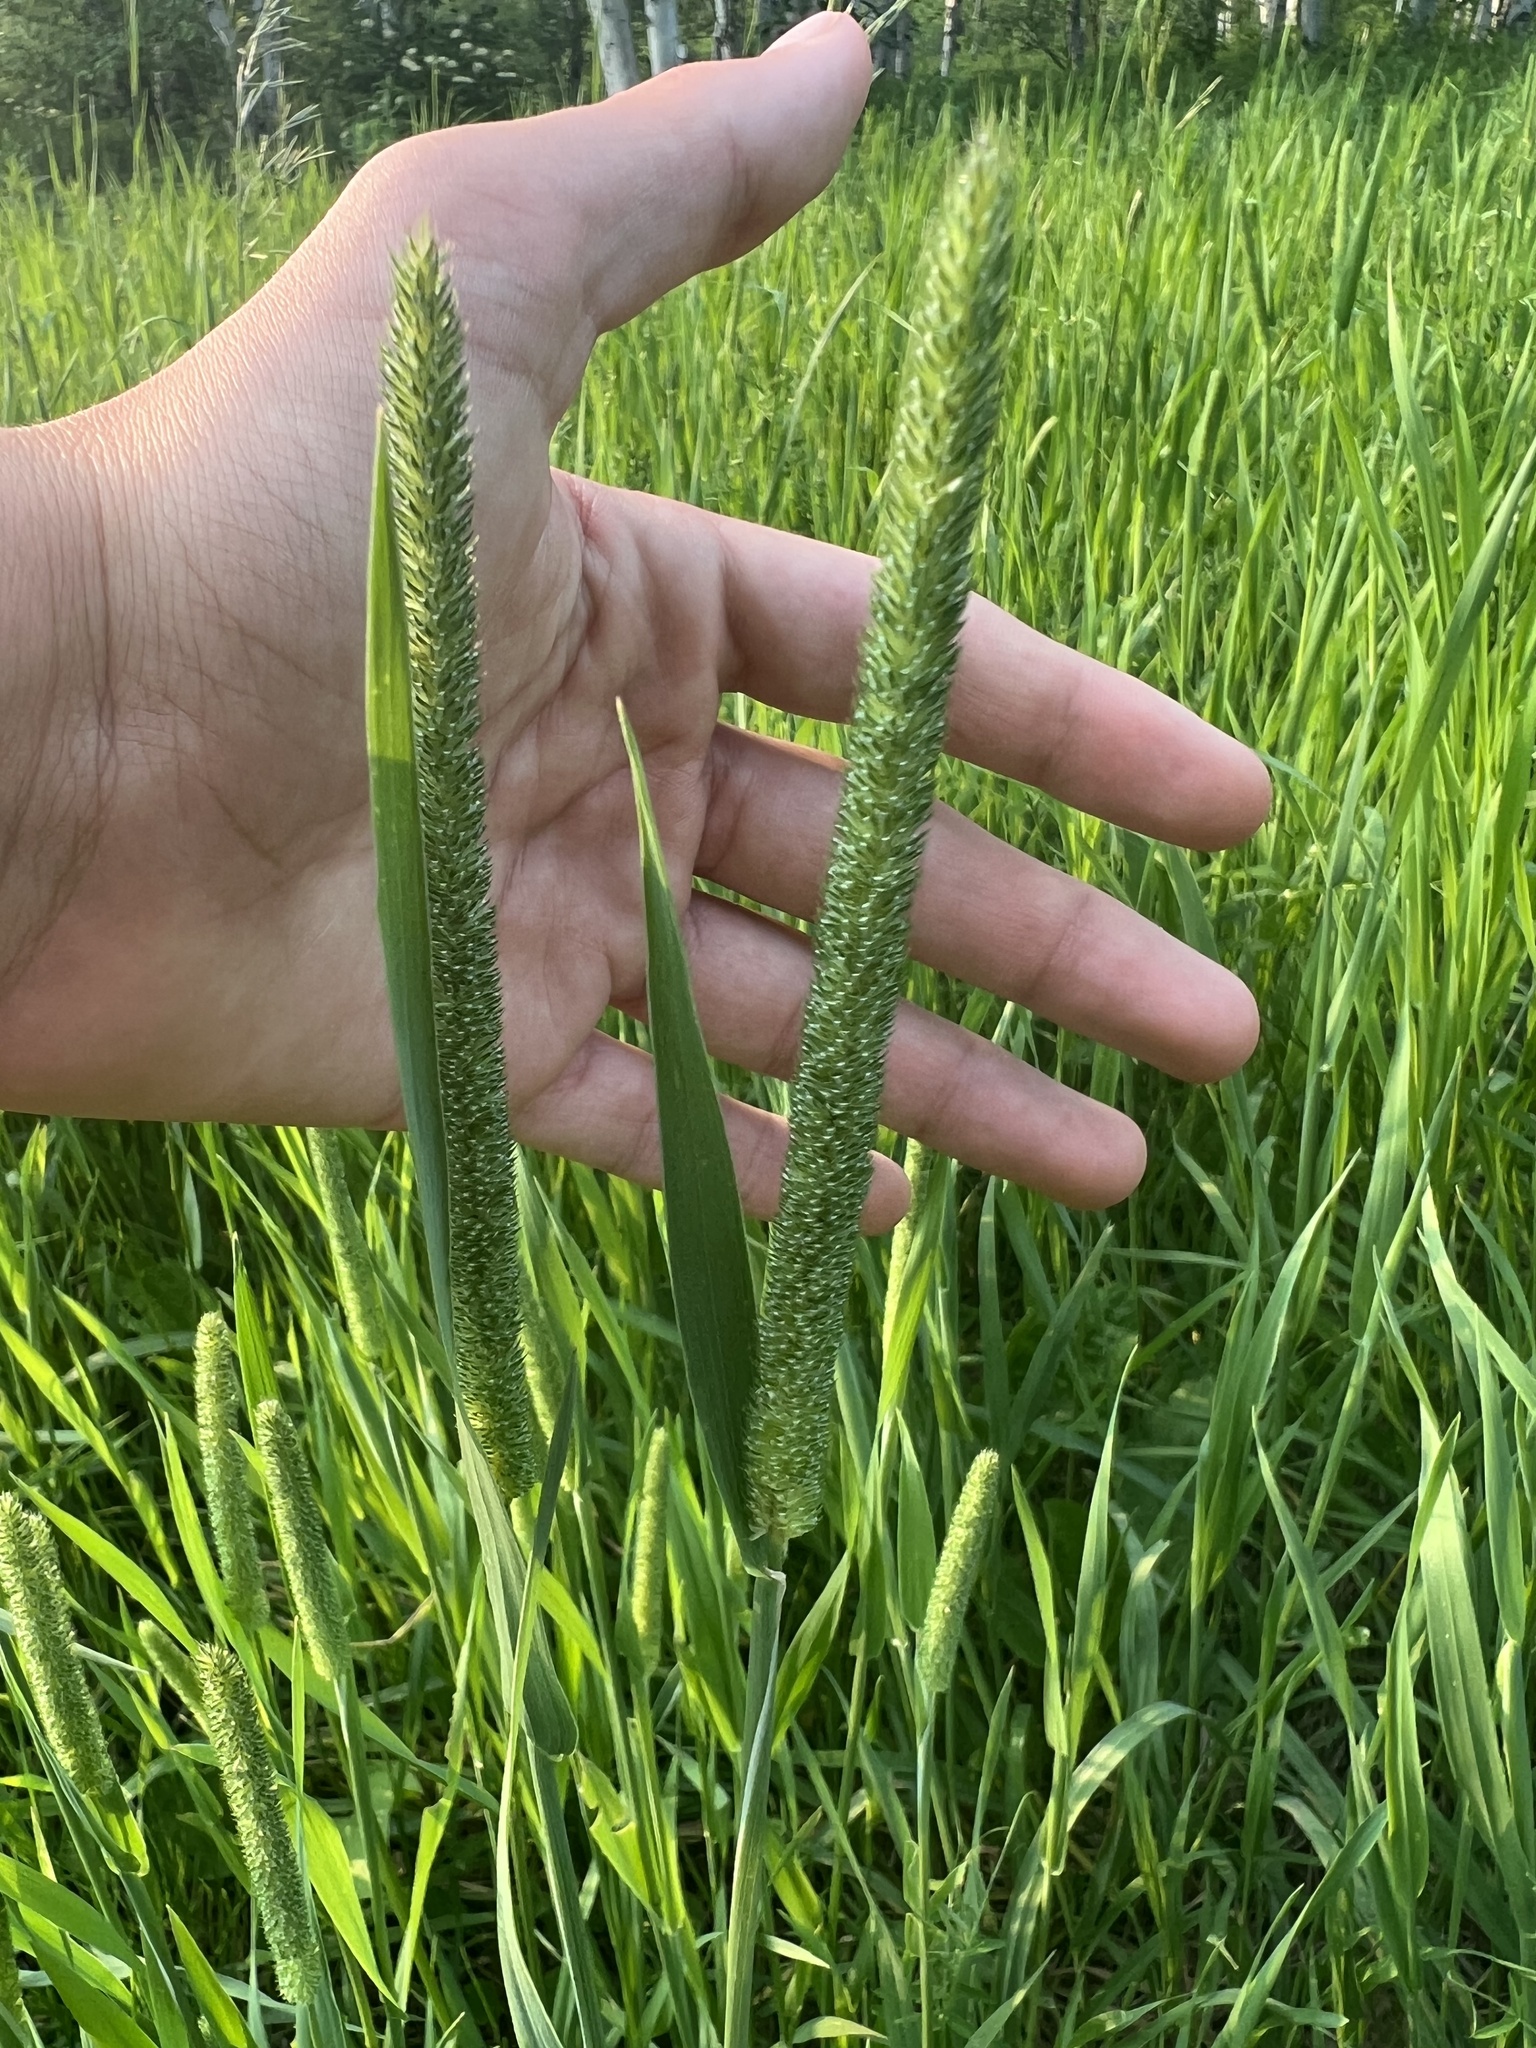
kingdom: Plantae
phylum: Tracheophyta
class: Liliopsida
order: Poales
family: Poaceae
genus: Phleum
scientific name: Phleum pratense
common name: Timothy grass
